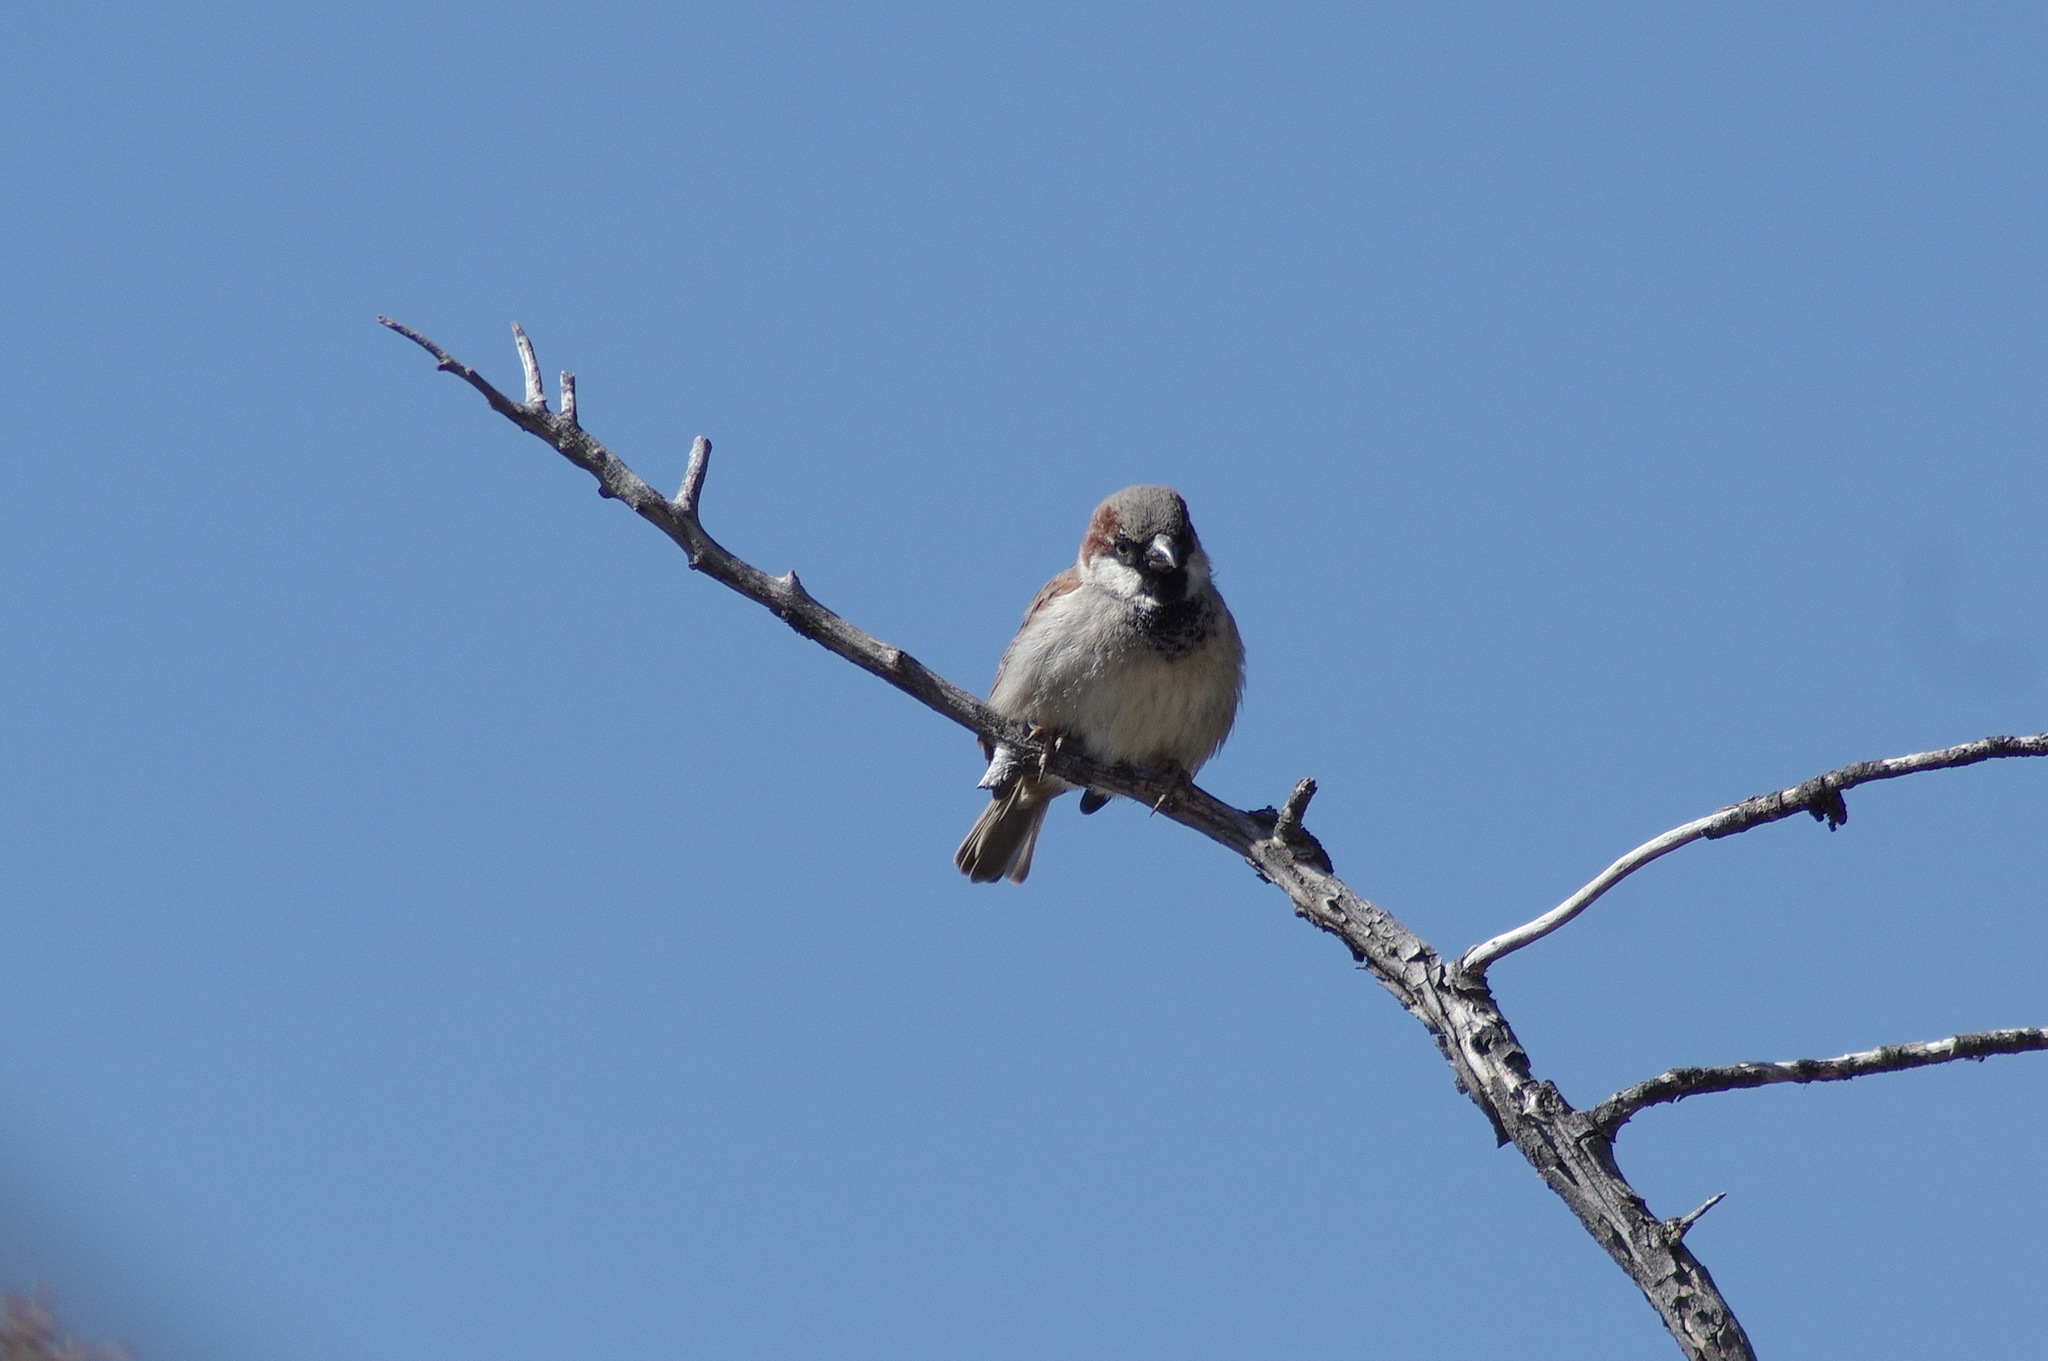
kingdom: Animalia
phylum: Chordata
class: Aves
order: Passeriformes
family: Passeridae
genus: Passer
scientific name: Passer domesticus
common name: House sparrow
